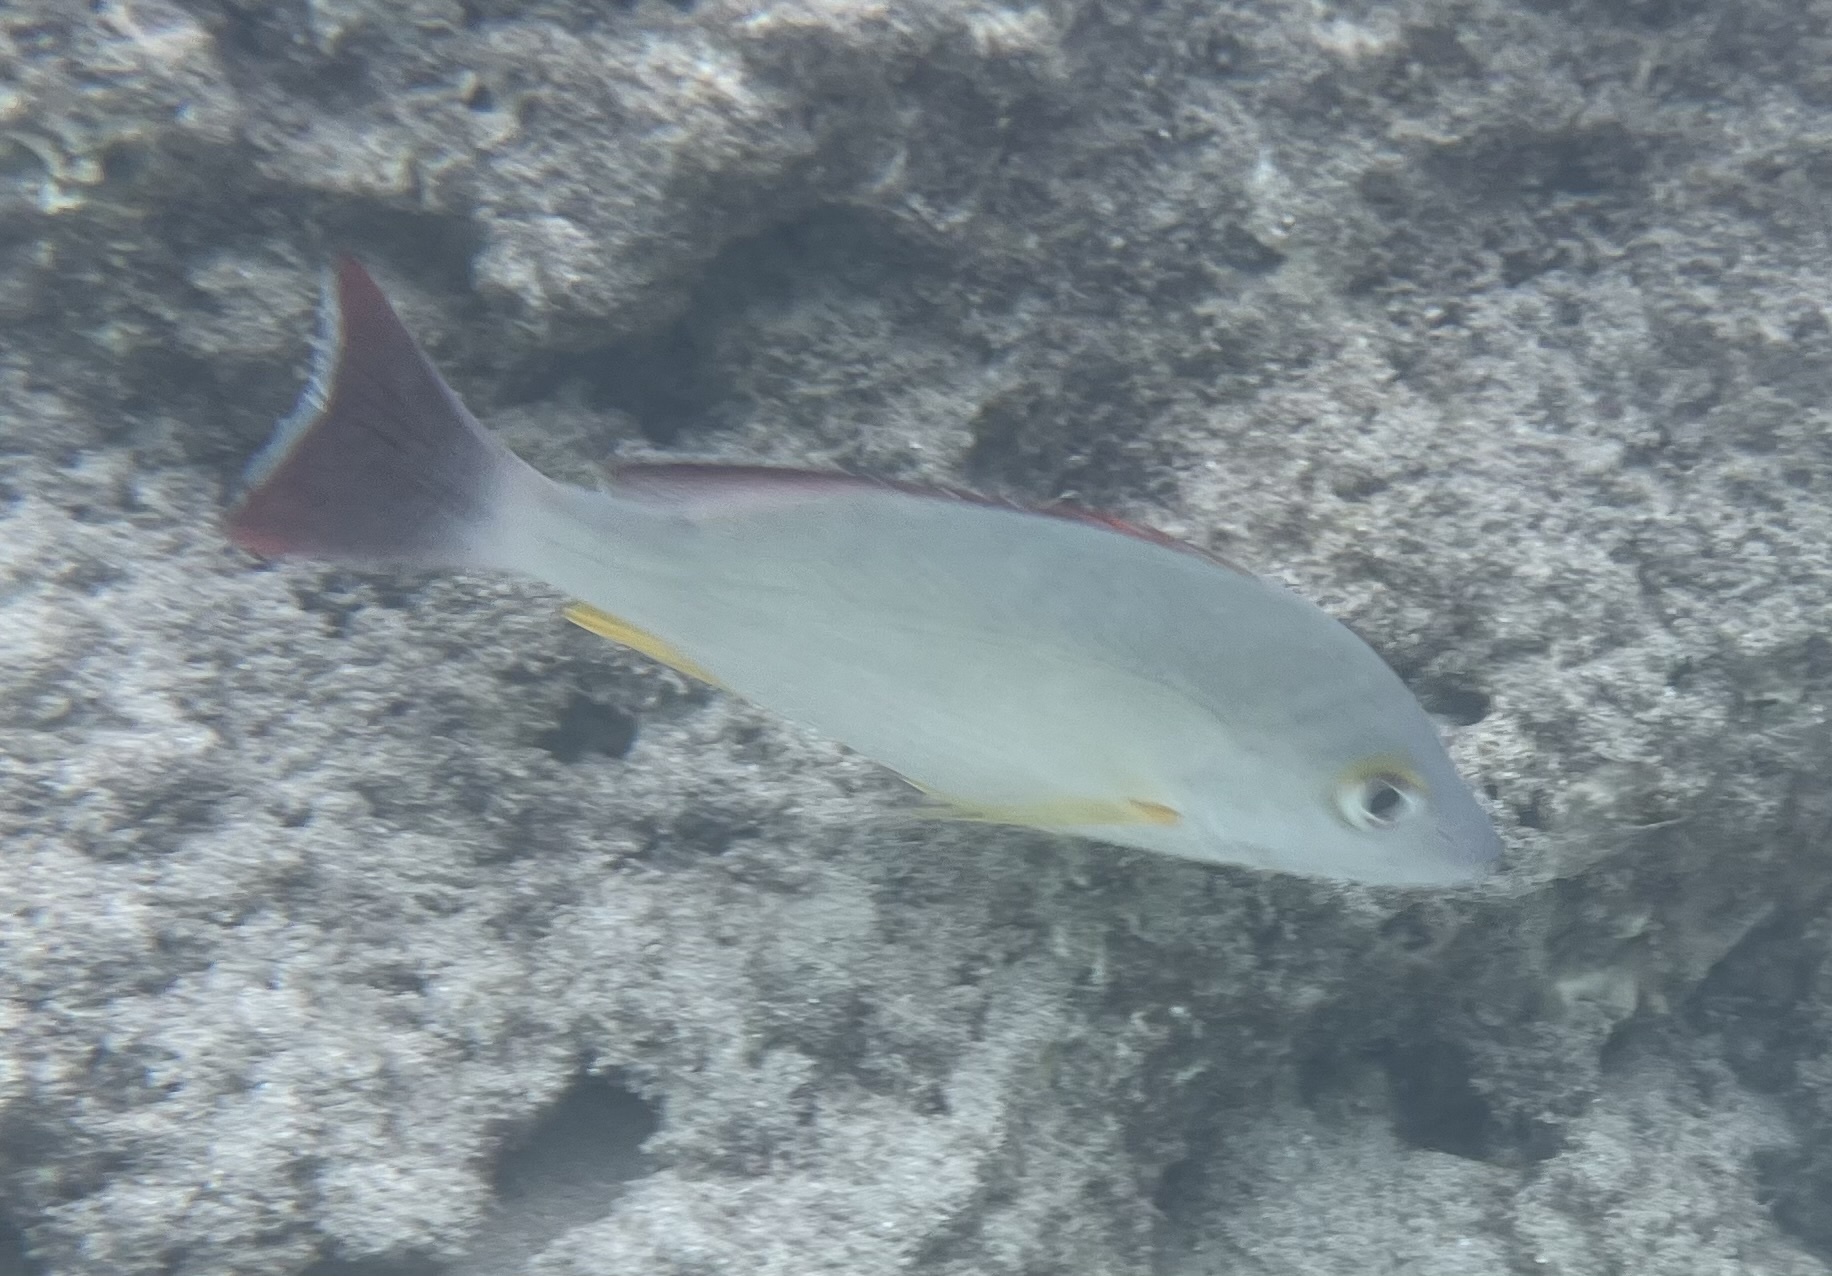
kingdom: Animalia
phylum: Chordata
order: Perciformes
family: Lutjanidae
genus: Lutjanus
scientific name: Lutjanus fulvus
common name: Blacktail snapper
